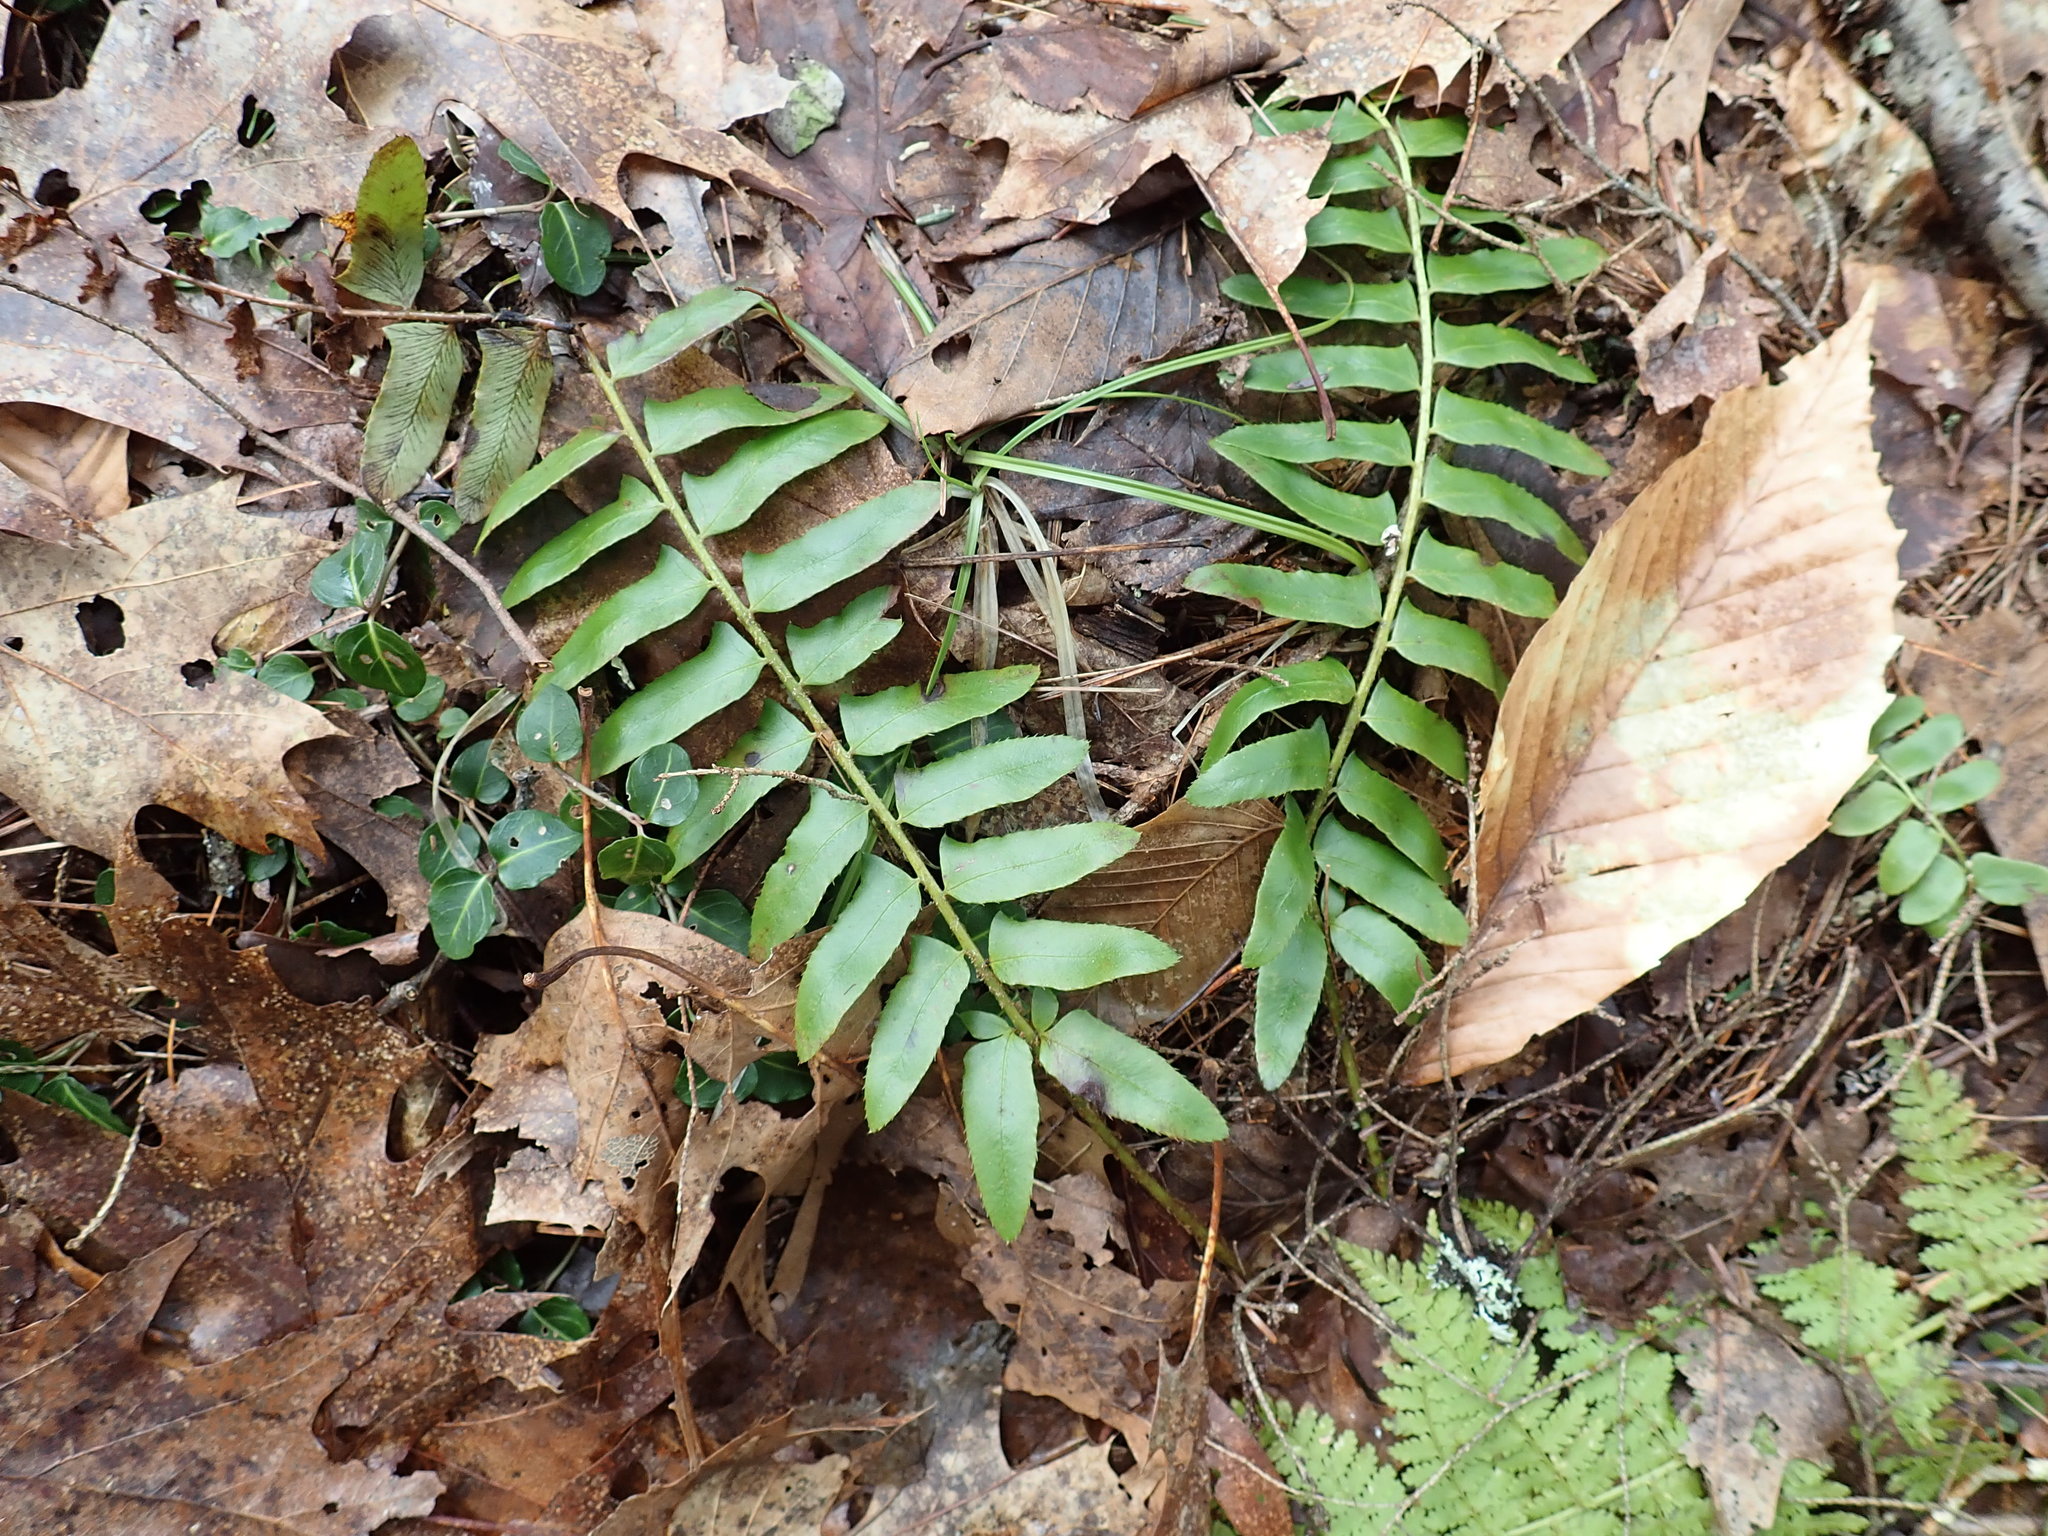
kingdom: Plantae
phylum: Tracheophyta
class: Polypodiopsida
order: Polypodiales
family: Dryopteridaceae
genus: Polystichum
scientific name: Polystichum acrostichoides
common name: Christmas fern
